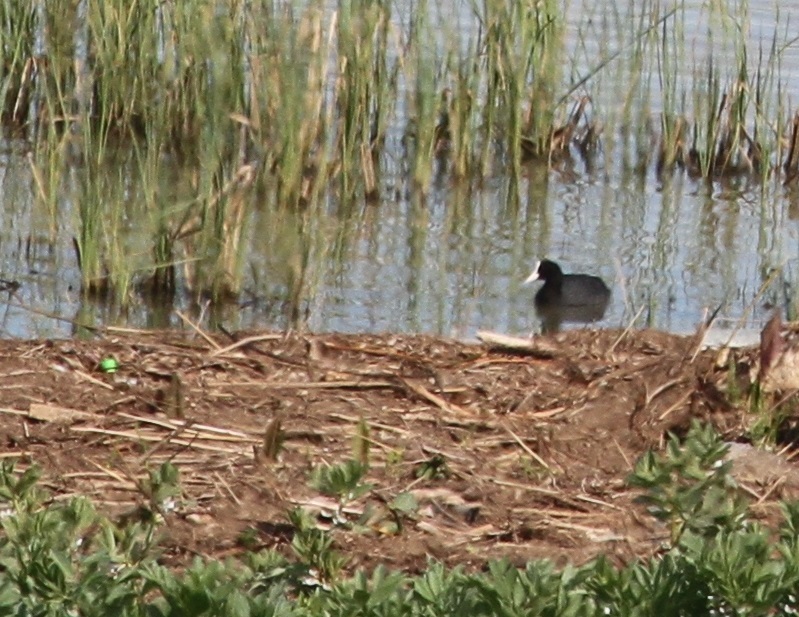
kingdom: Animalia
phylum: Chordata
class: Aves
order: Gruiformes
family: Rallidae
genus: Fulica
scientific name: Fulica atra
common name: Eurasian coot
